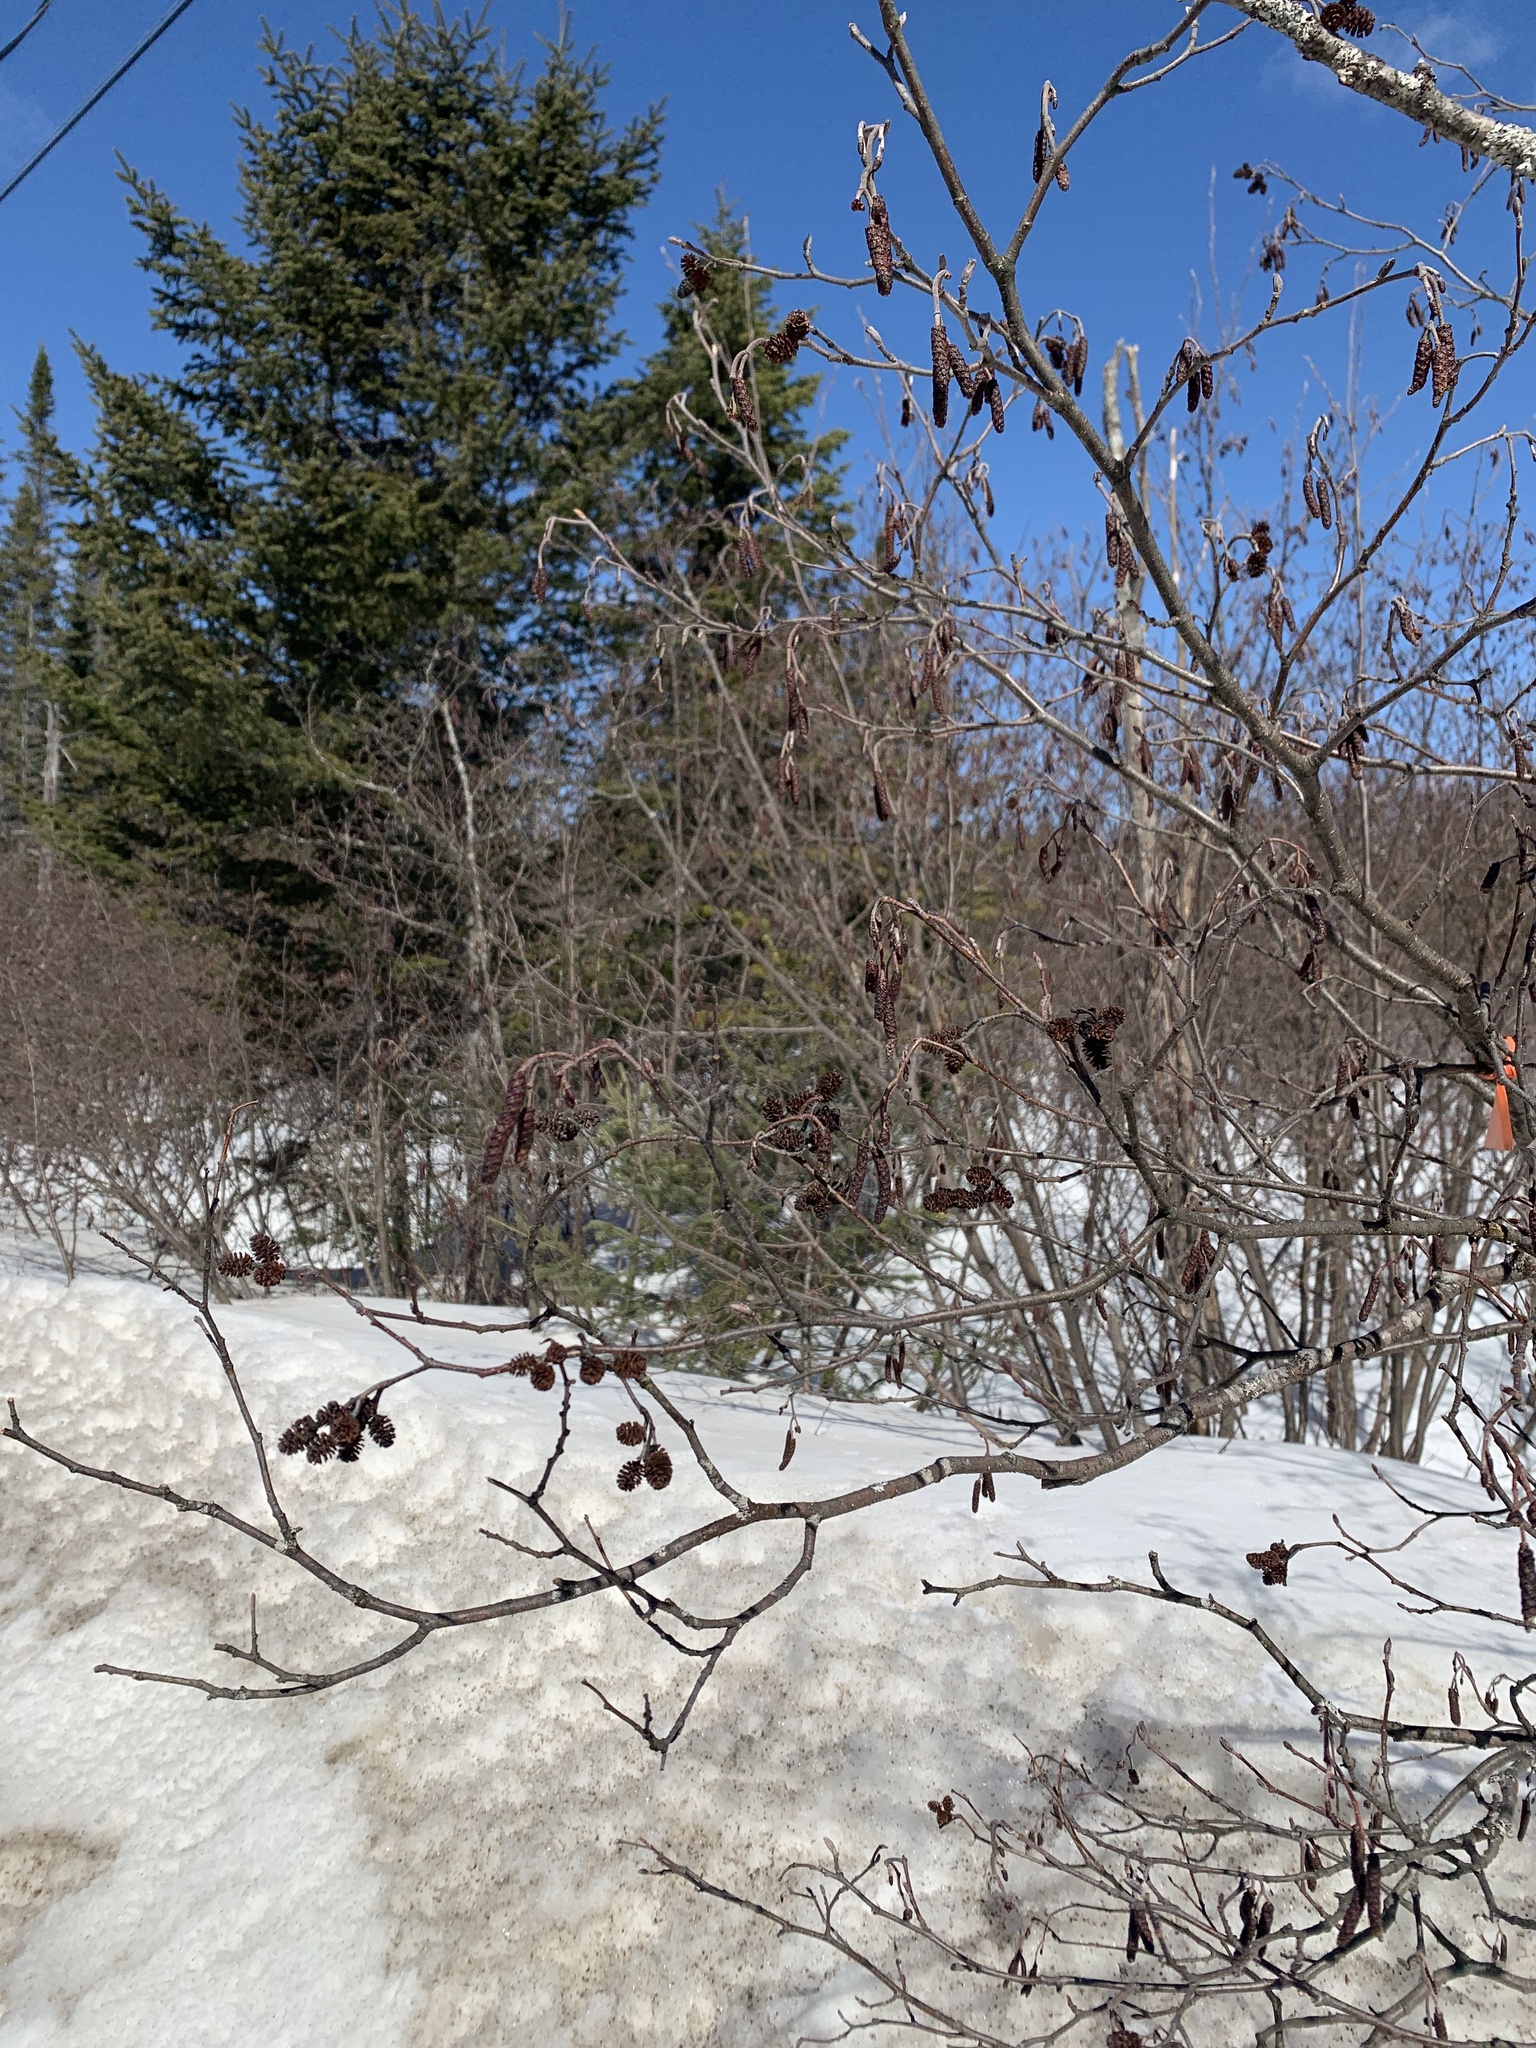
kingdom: Plantae
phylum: Tracheophyta
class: Magnoliopsida
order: Fagales
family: Betulaceae
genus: Alnus
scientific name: Alnus incana
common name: Grey alder
